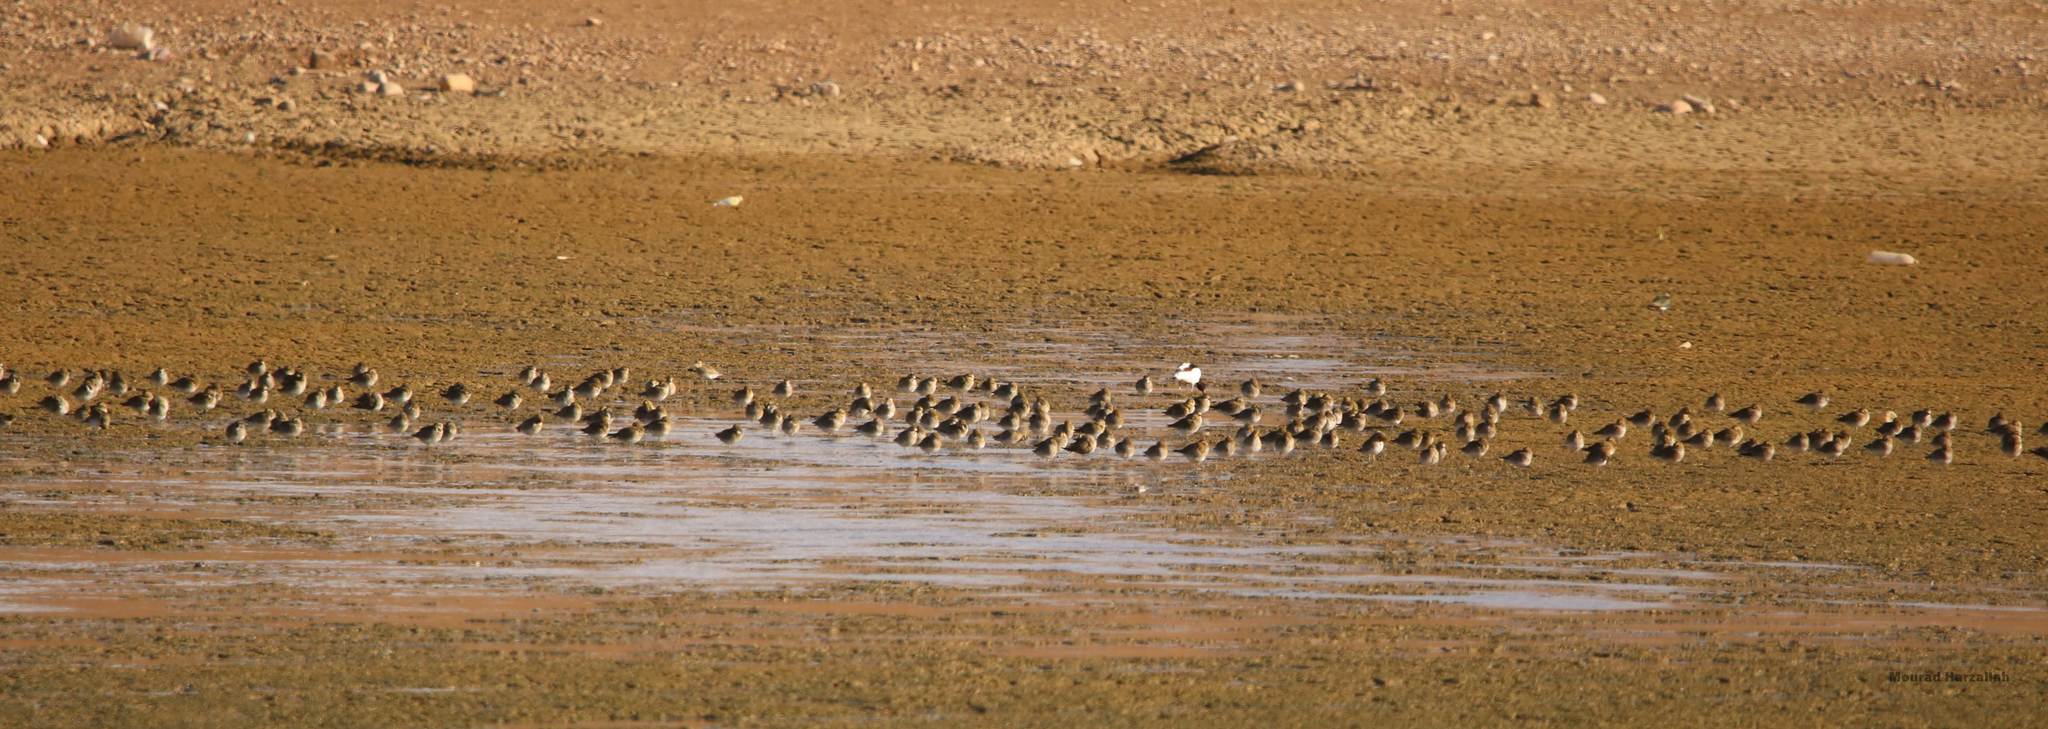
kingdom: Animalia
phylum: Chordata
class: Aves
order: Charadriiformes
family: Charadriidae
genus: Pluvialis
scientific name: Pluvialis apricaria
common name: European golden plover
